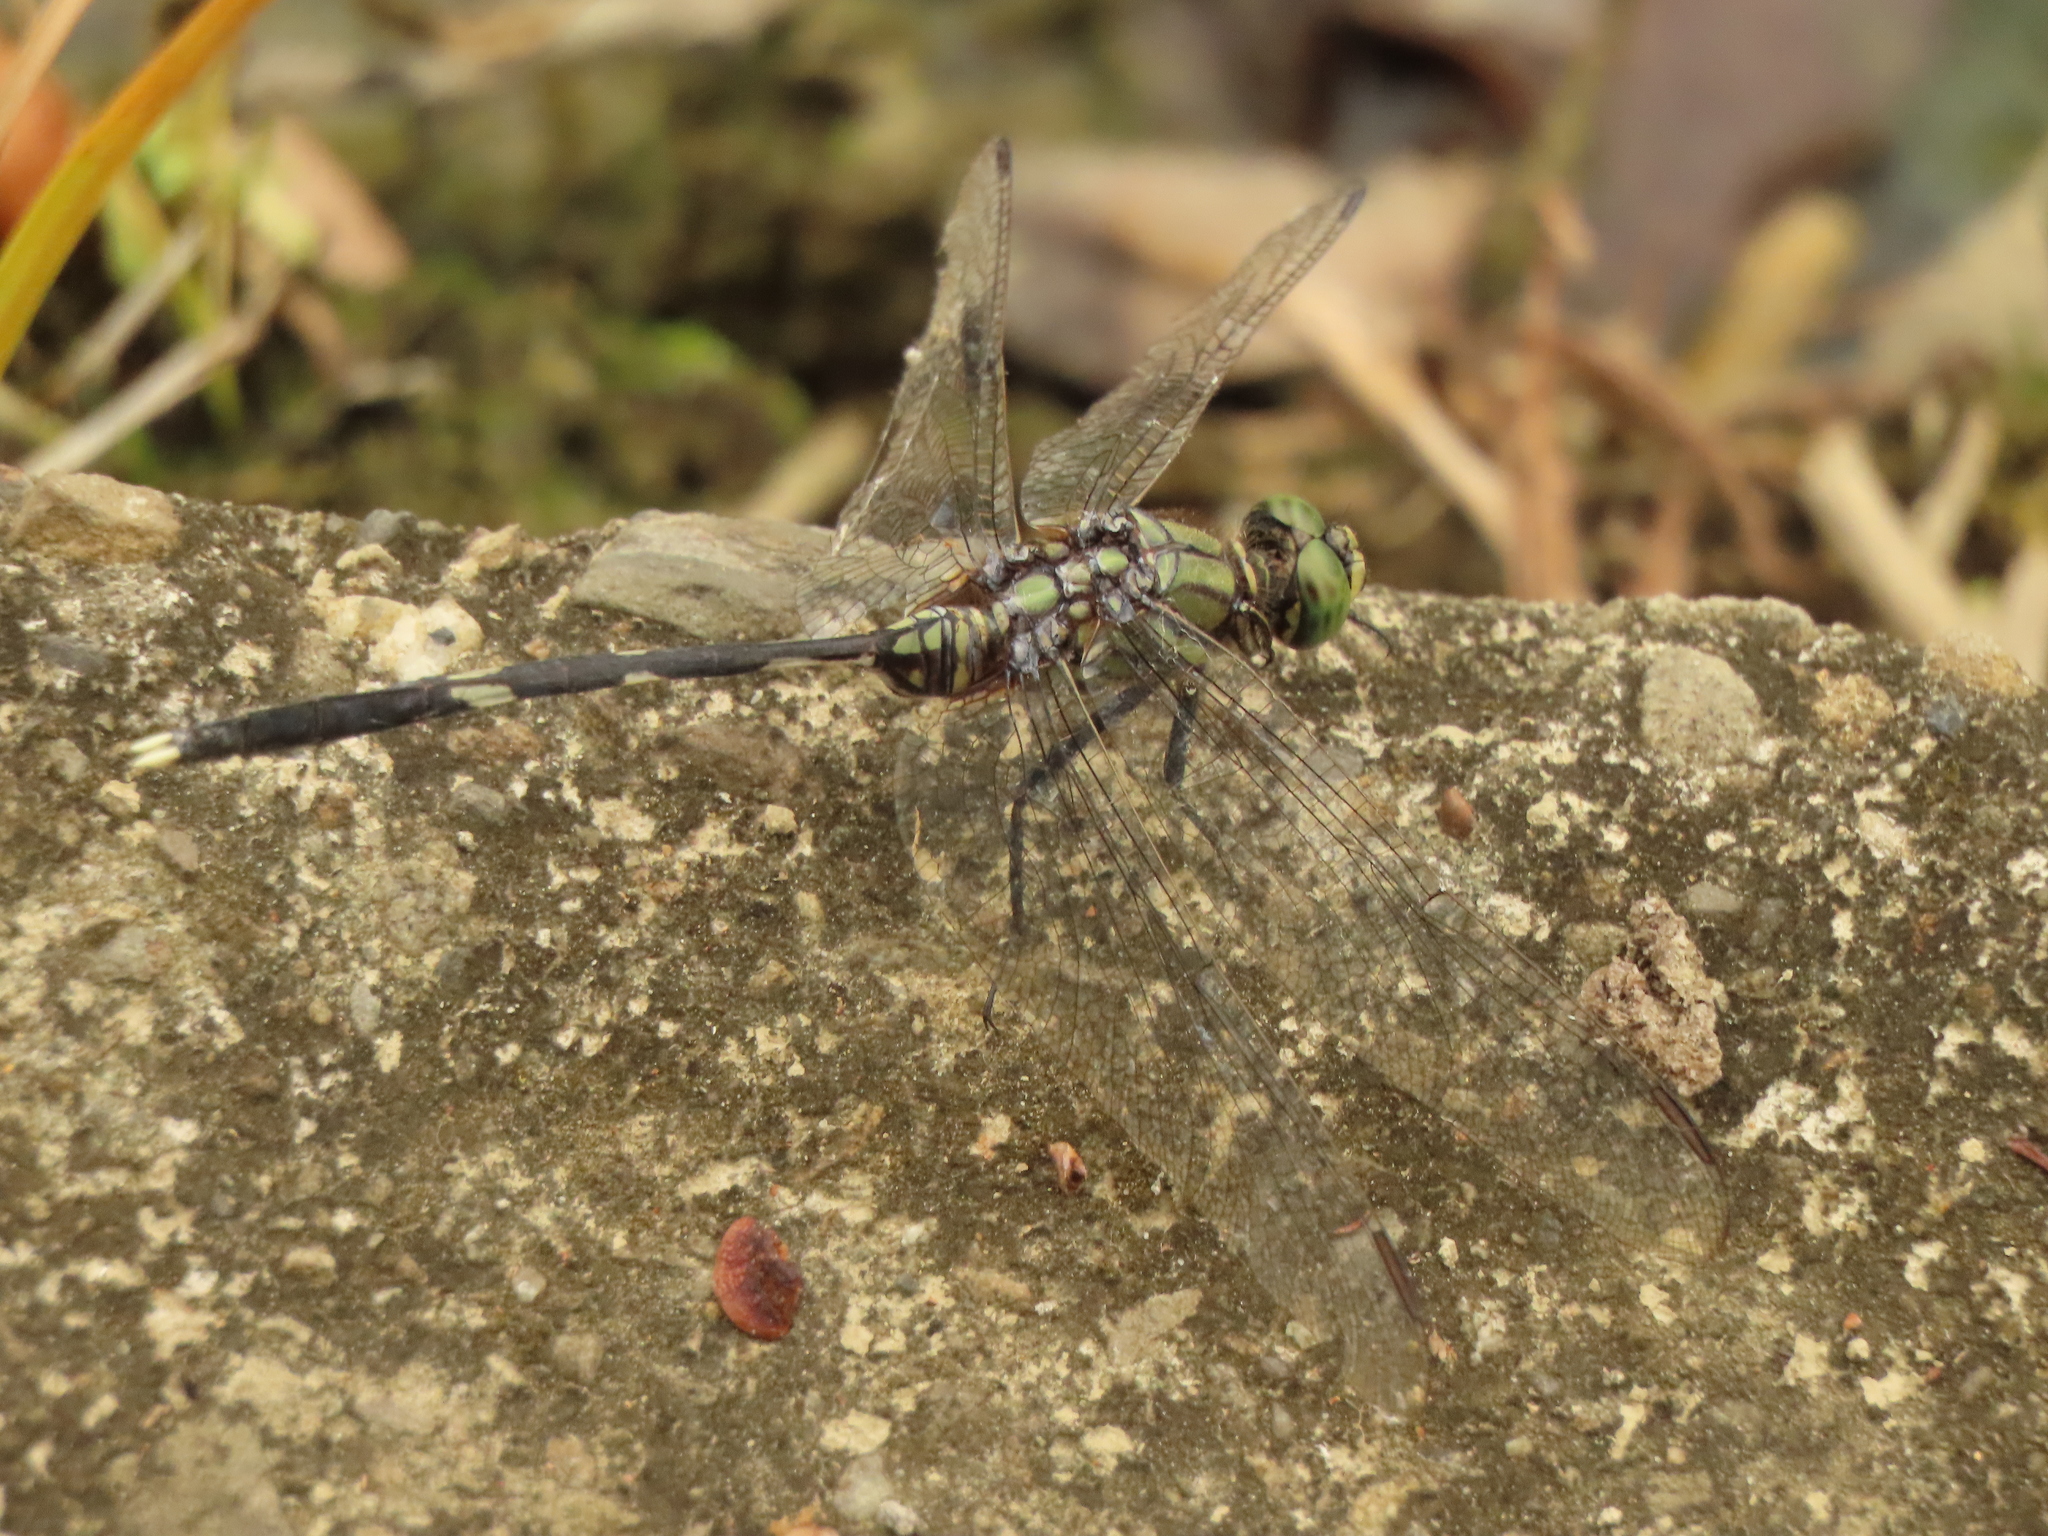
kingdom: Animalia
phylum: Arthropoda
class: Insecta
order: Odonata
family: Libellulidae
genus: Orthetrum
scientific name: Orthetrum sabina
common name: Slender skimmer
